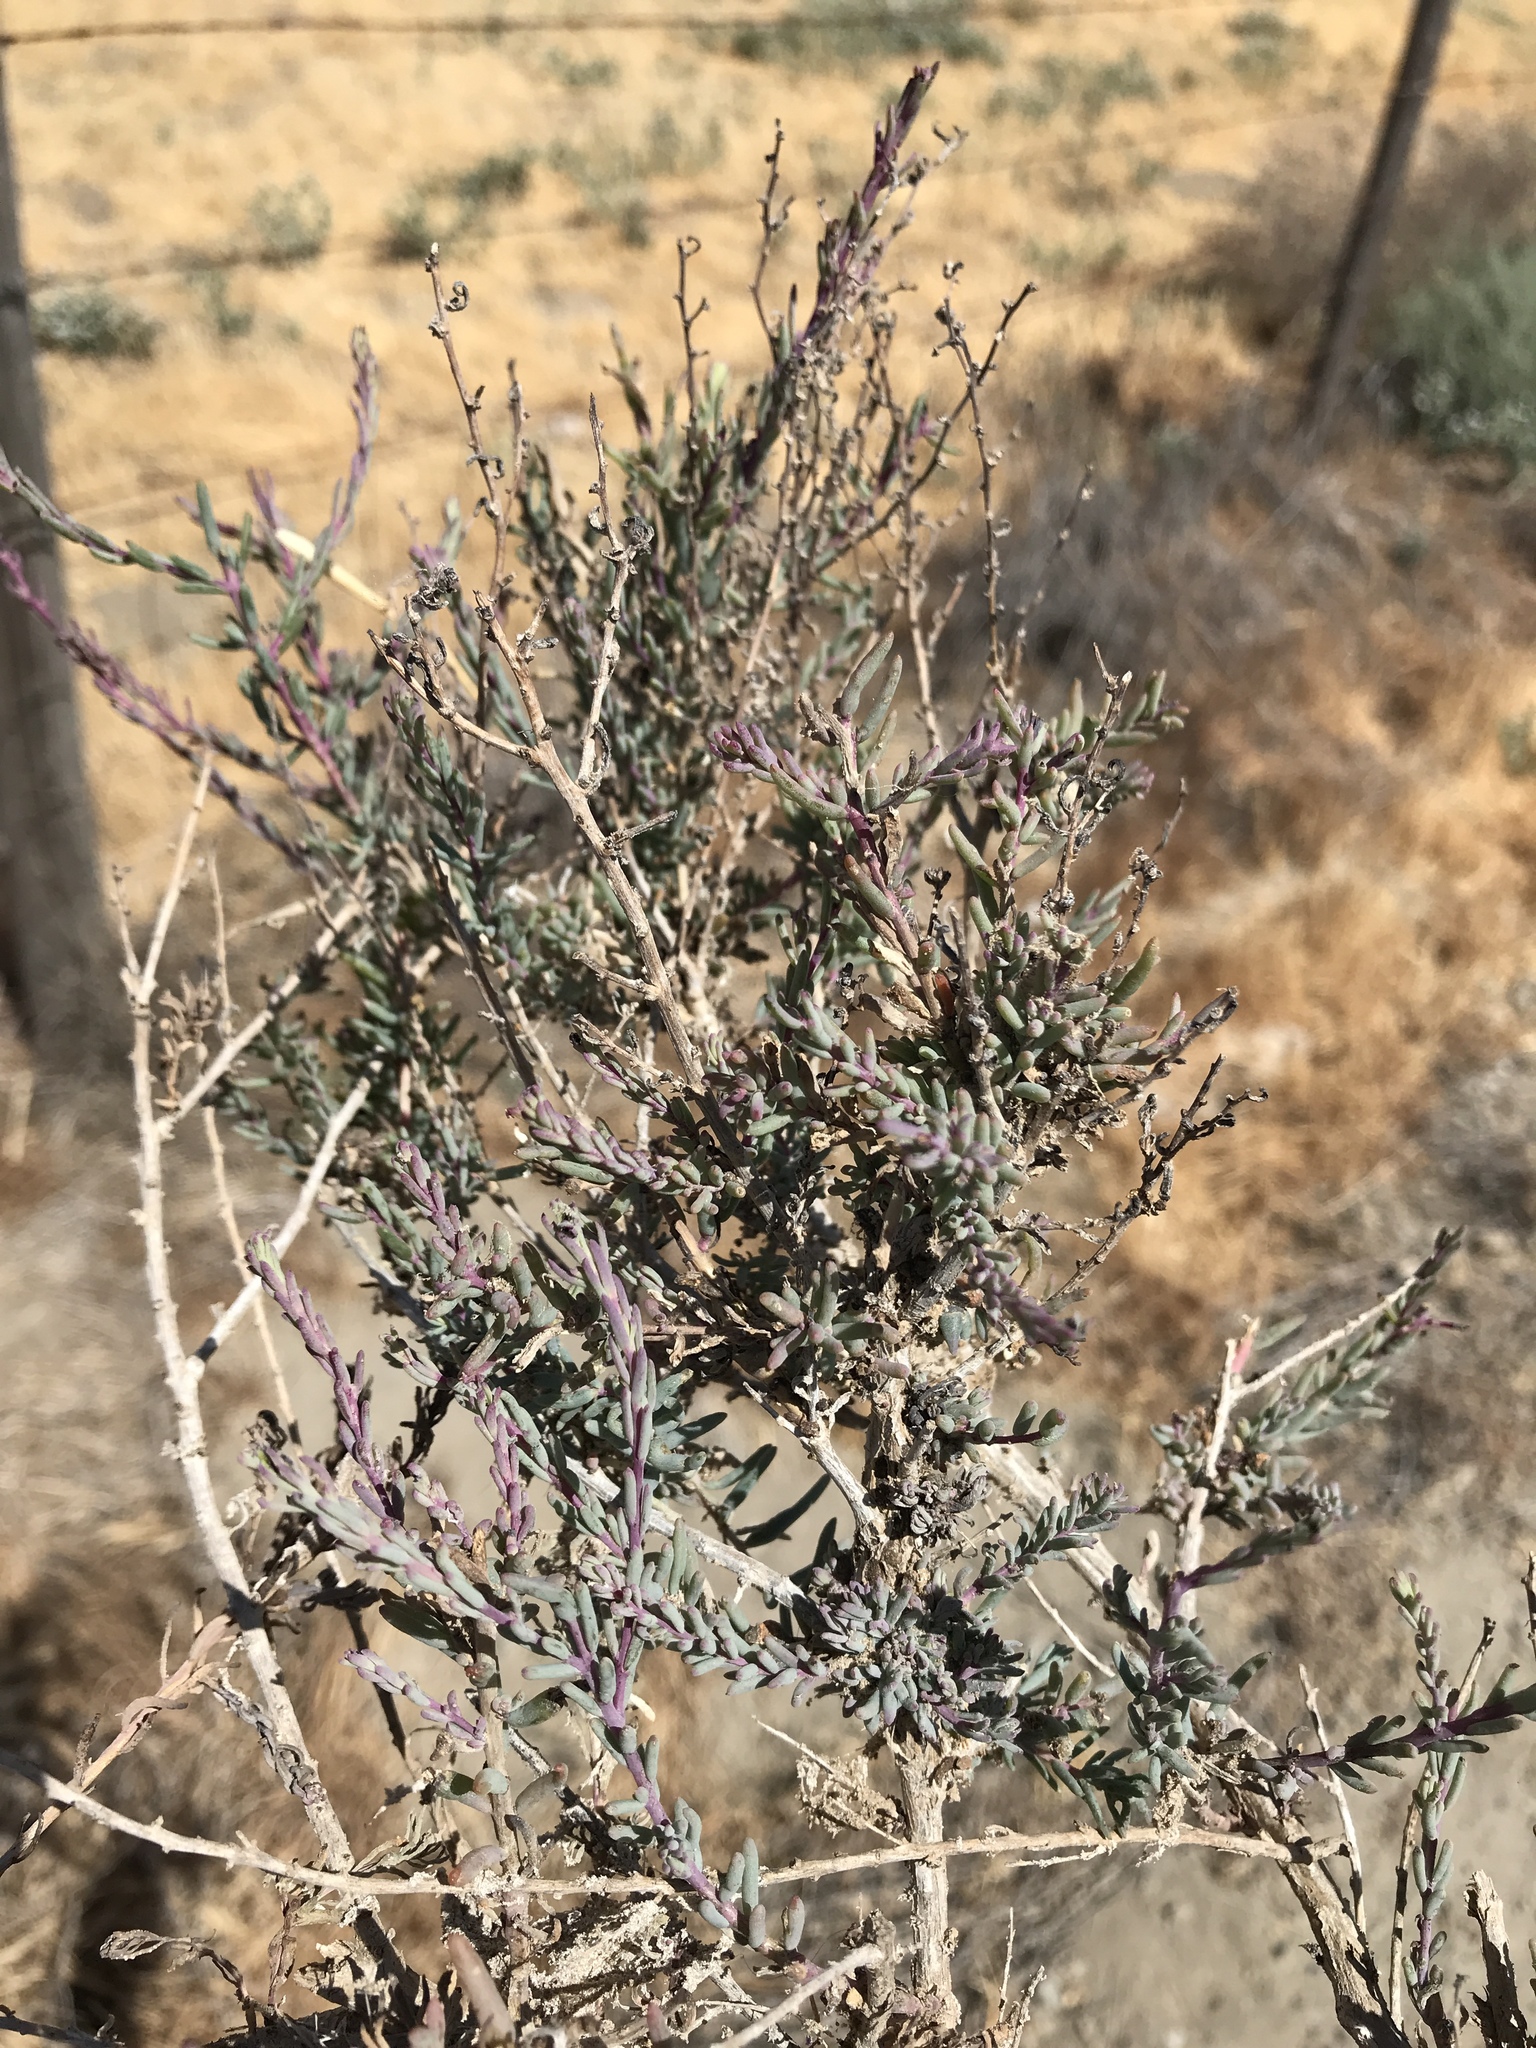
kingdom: Plantae
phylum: Tracheophyta
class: Magnoliopsida
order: Caryophyllales
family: Amaranthaceae
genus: Suaeda
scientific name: Suaeda nigra
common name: Bush seepweed
